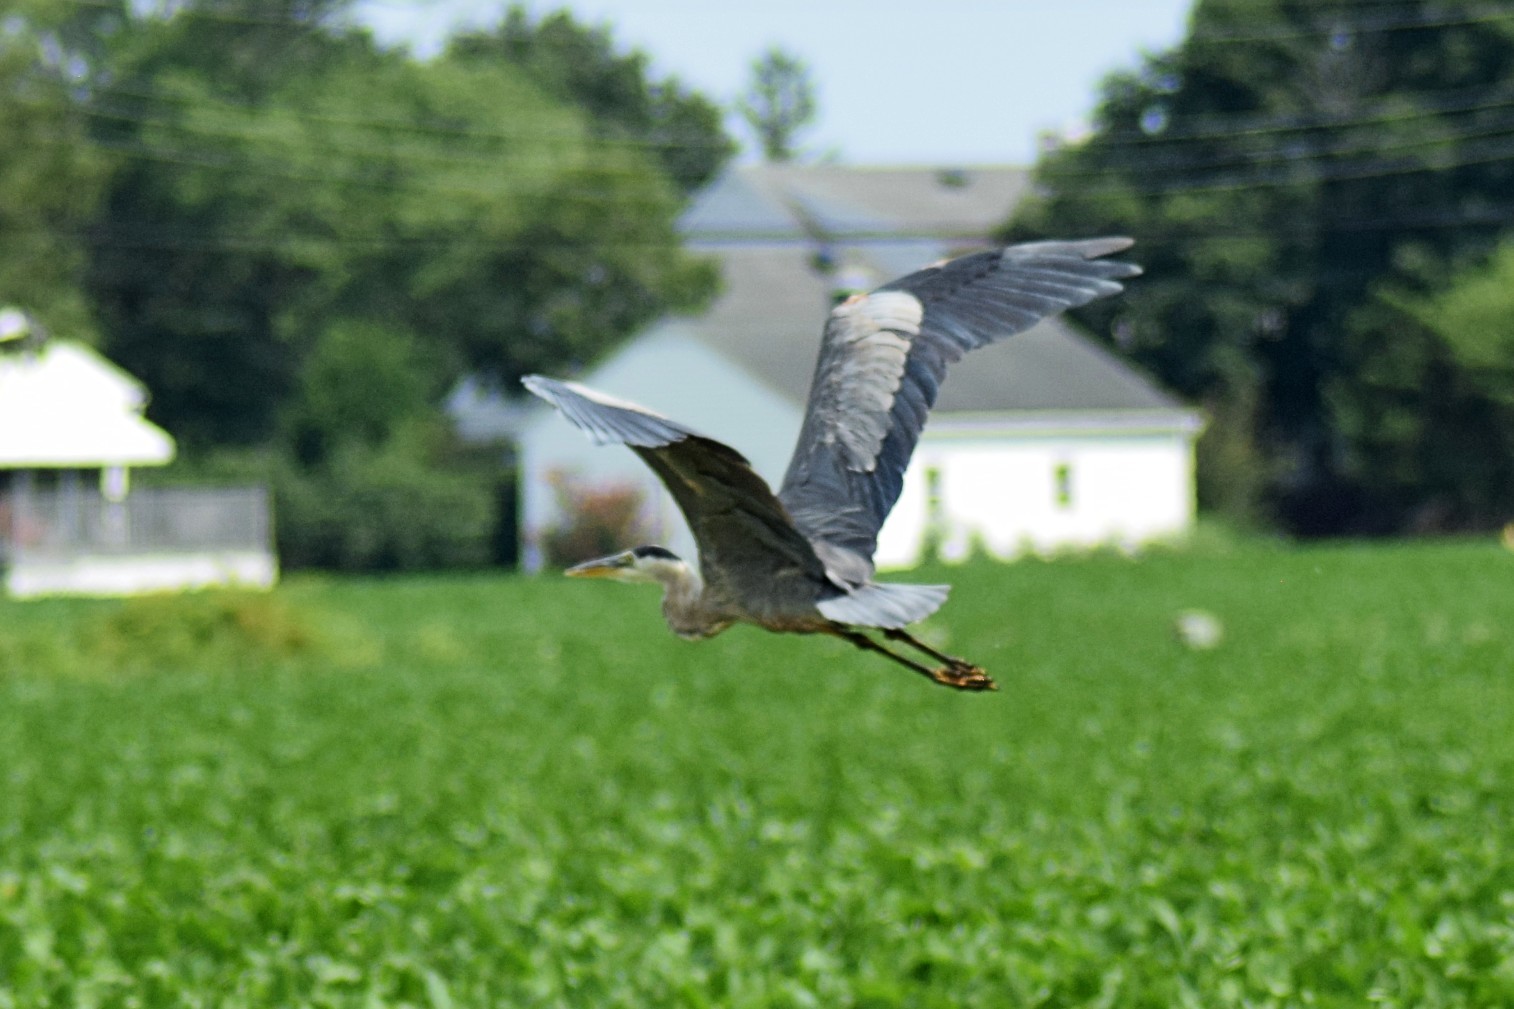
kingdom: Animalia
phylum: Chordata
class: Aves
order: Pelecaniformes
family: Ardeidae
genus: Ardea
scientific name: Ardea herodias
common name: Great blue heron
